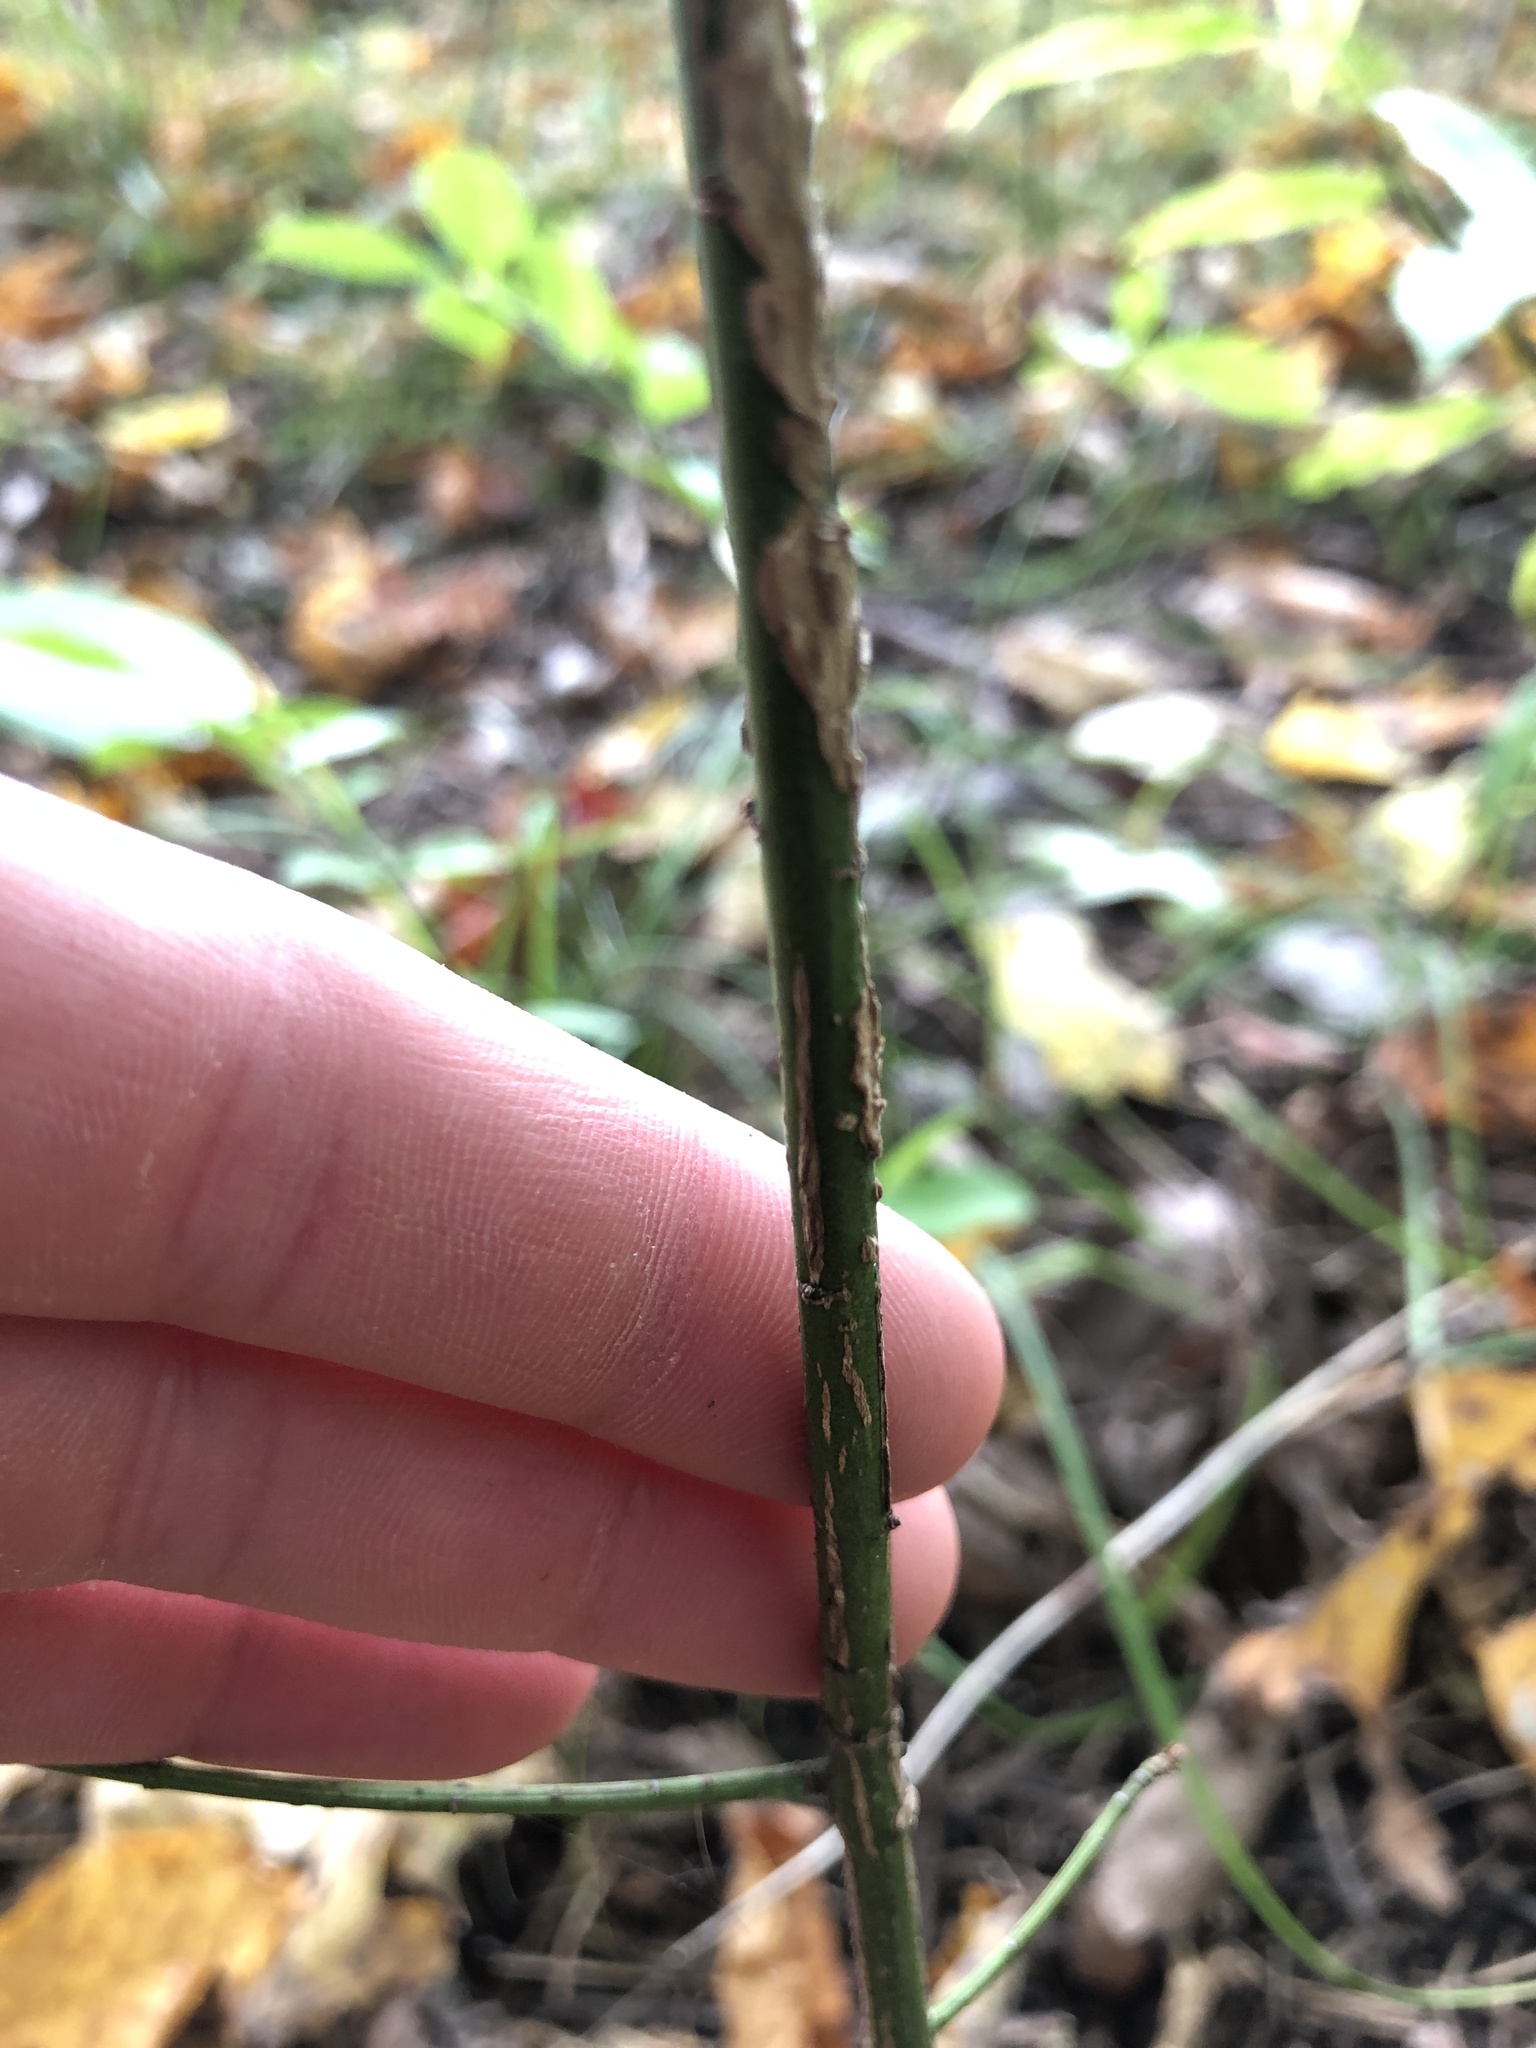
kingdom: Plantae
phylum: Tracheophyta
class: Magnoliopsida
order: Celastrales
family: Celastraceae
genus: Euonymus
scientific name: Euonymus alatus
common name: Winged euonymus
